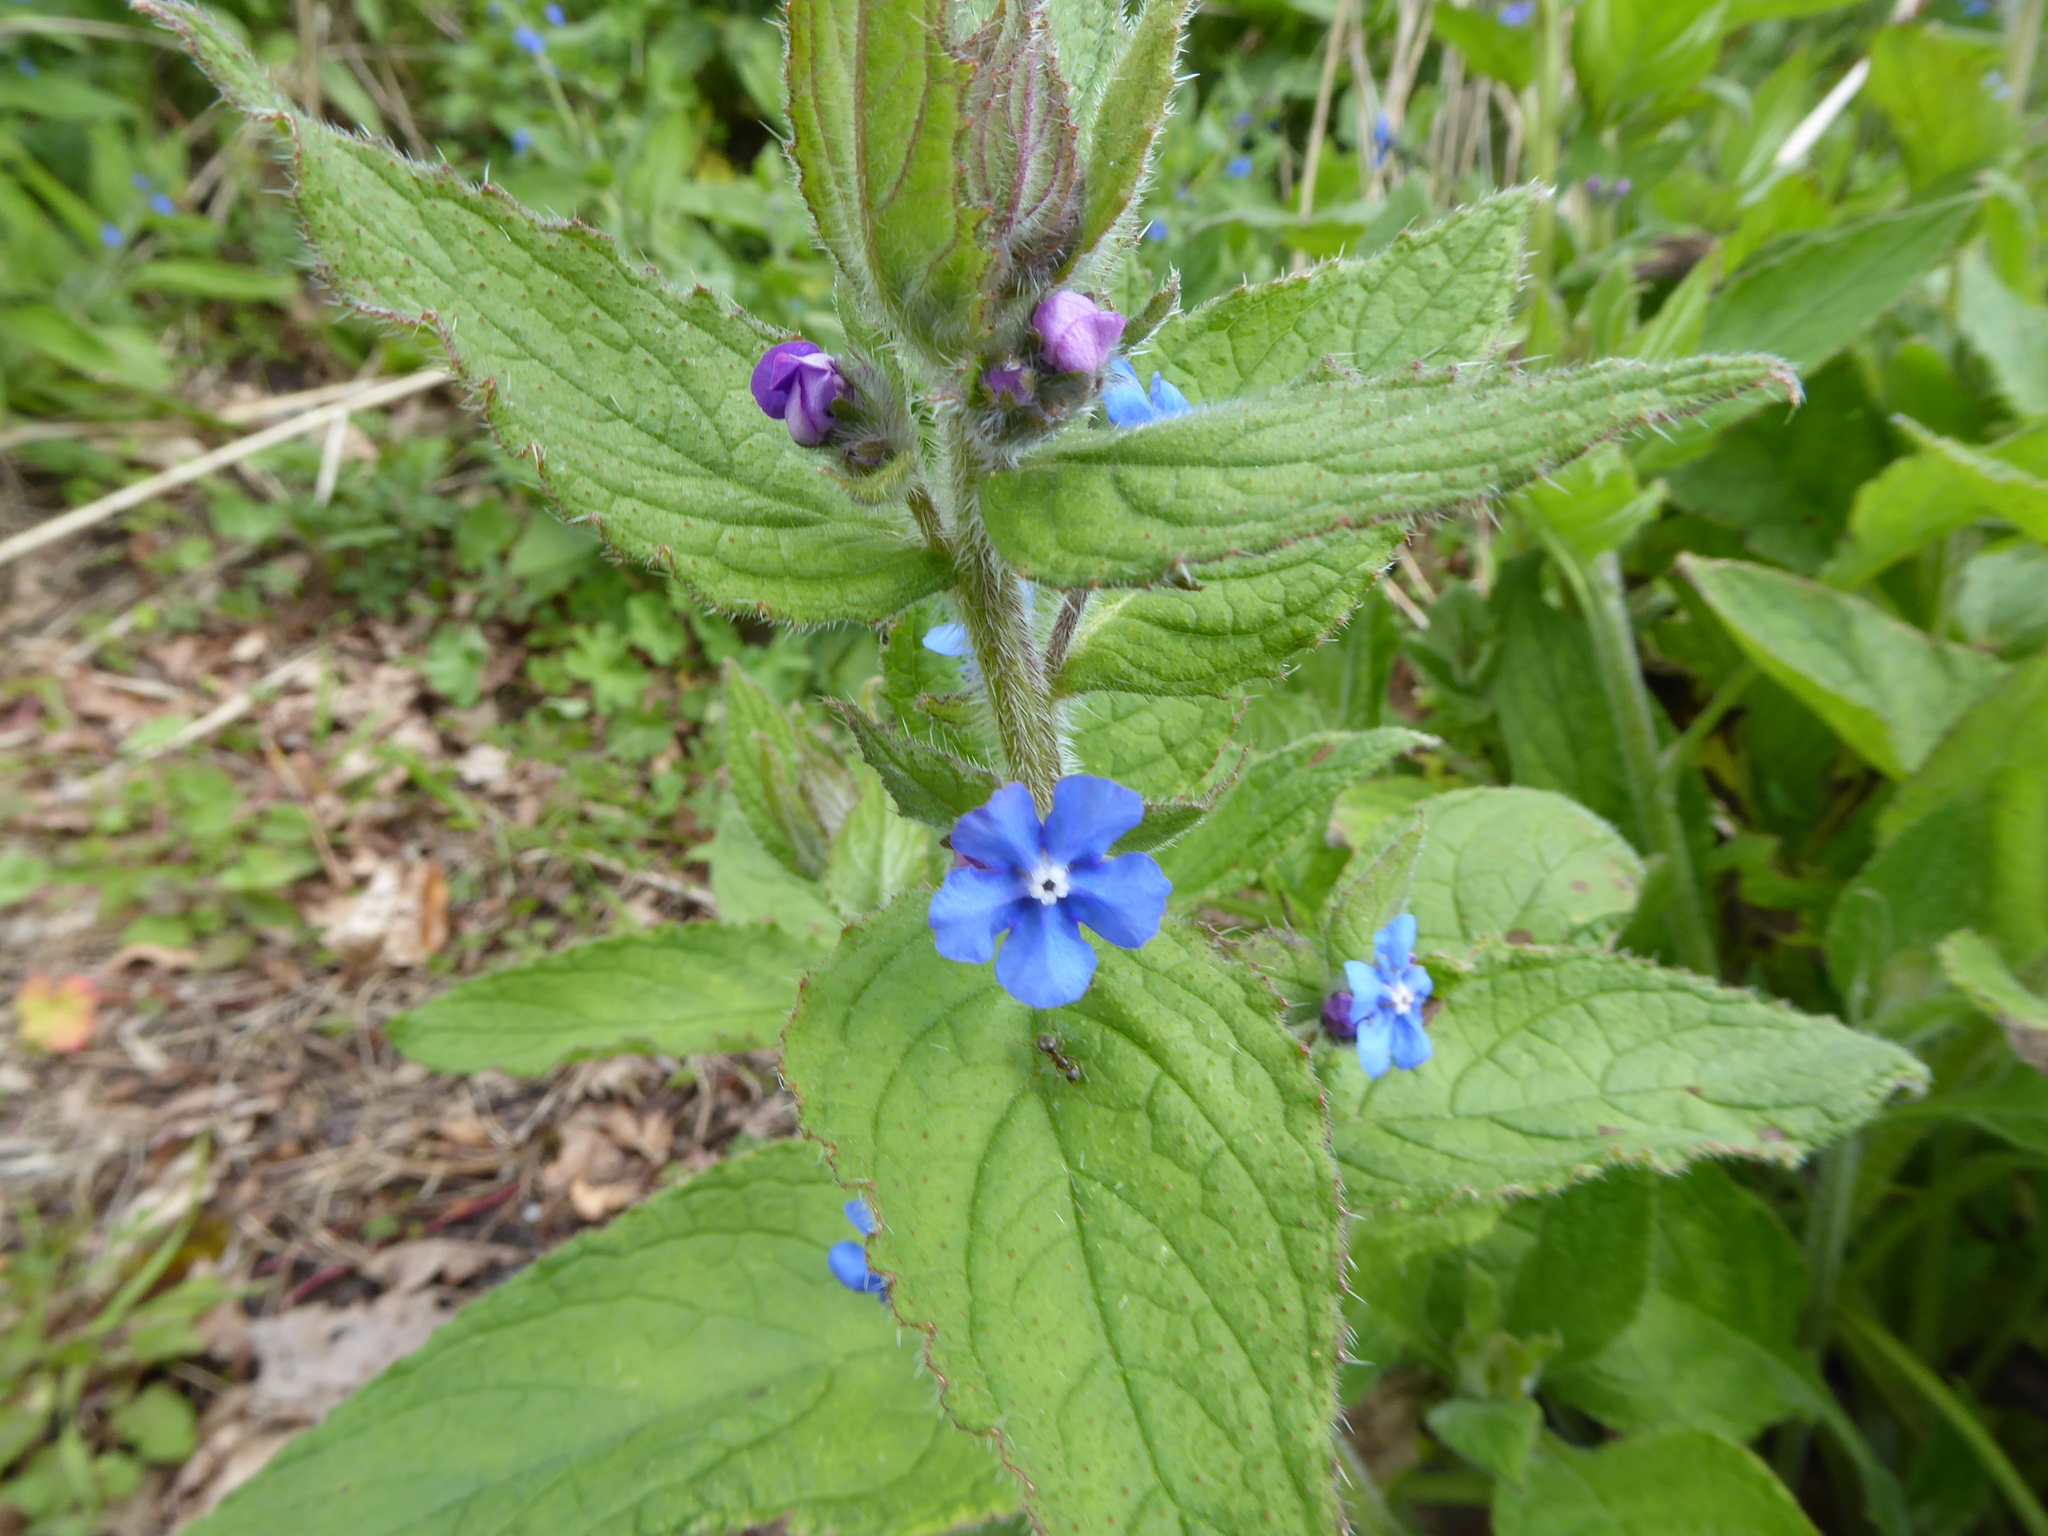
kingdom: Plantae
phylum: Tracheophyta
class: Magnoliopsida
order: Boraginales
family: Boraginaceae
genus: Pentaglottis
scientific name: Pentaglottis sempervirens
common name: Green alkanet
